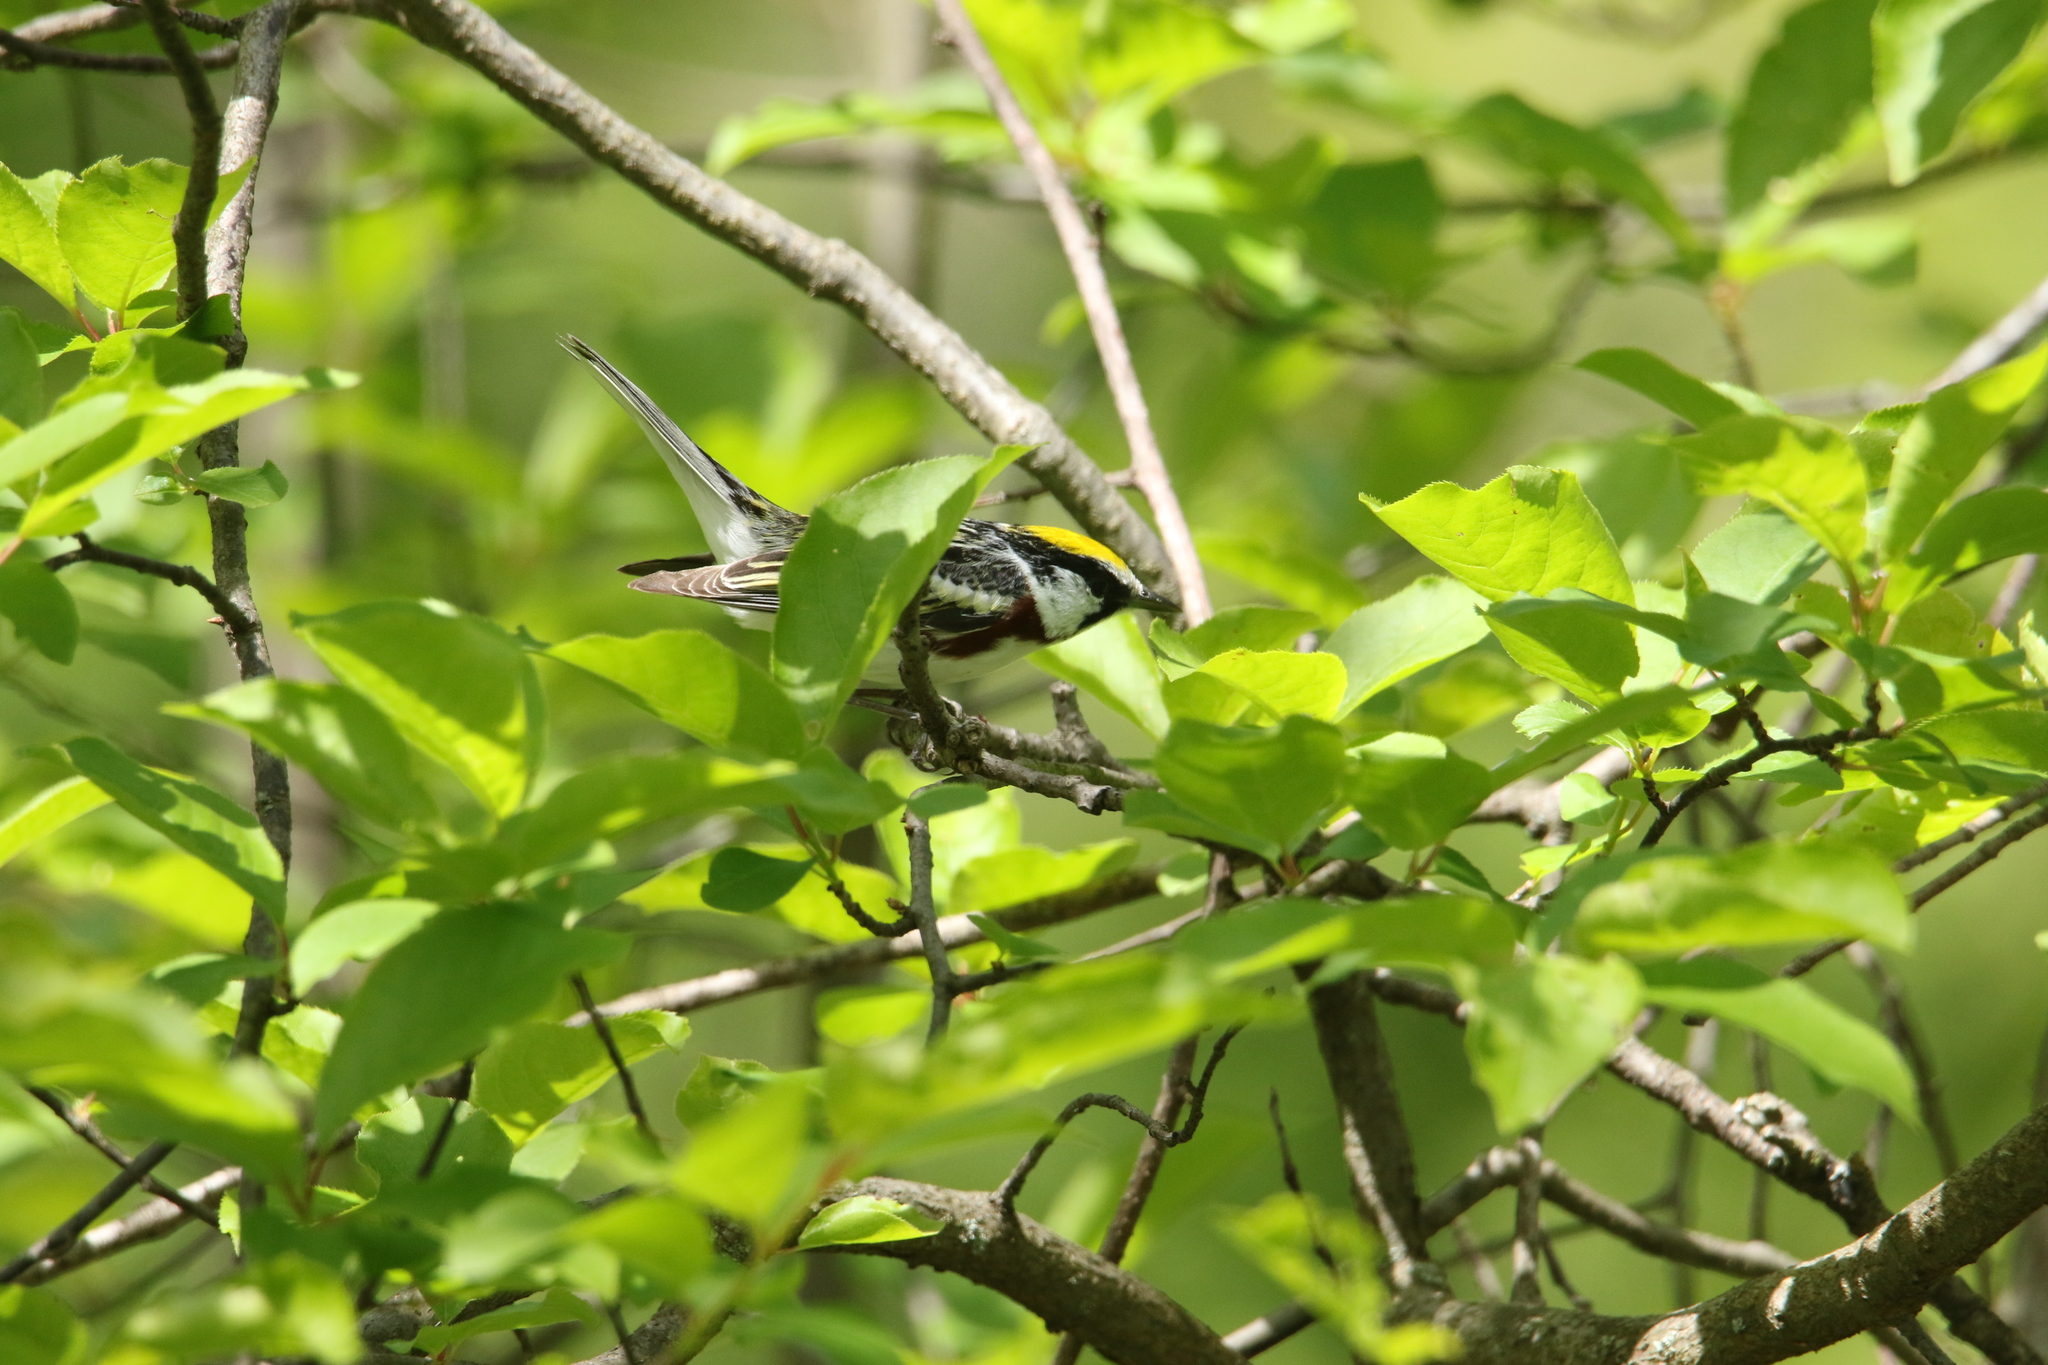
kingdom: Animalia
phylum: Chordata
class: Aves
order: Passeriformes
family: Parulidae
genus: Setophaga
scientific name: Setophaga pensylvanica
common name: Chestnut-sided warbler
